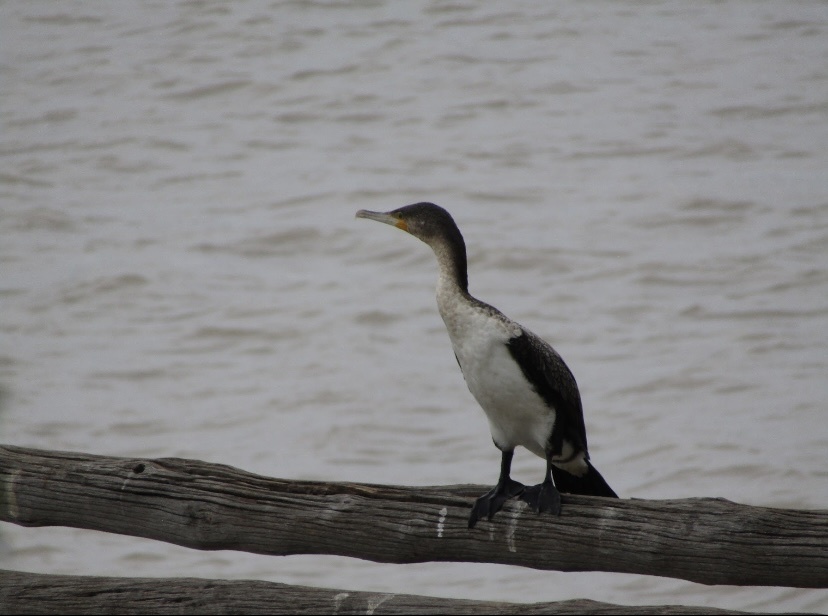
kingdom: Animalia
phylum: Chordata
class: Aves
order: Suliformes
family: Phalacrocoracidae
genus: Phalacrocorax
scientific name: Phalacrocorax carbo
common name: Great cormorant
